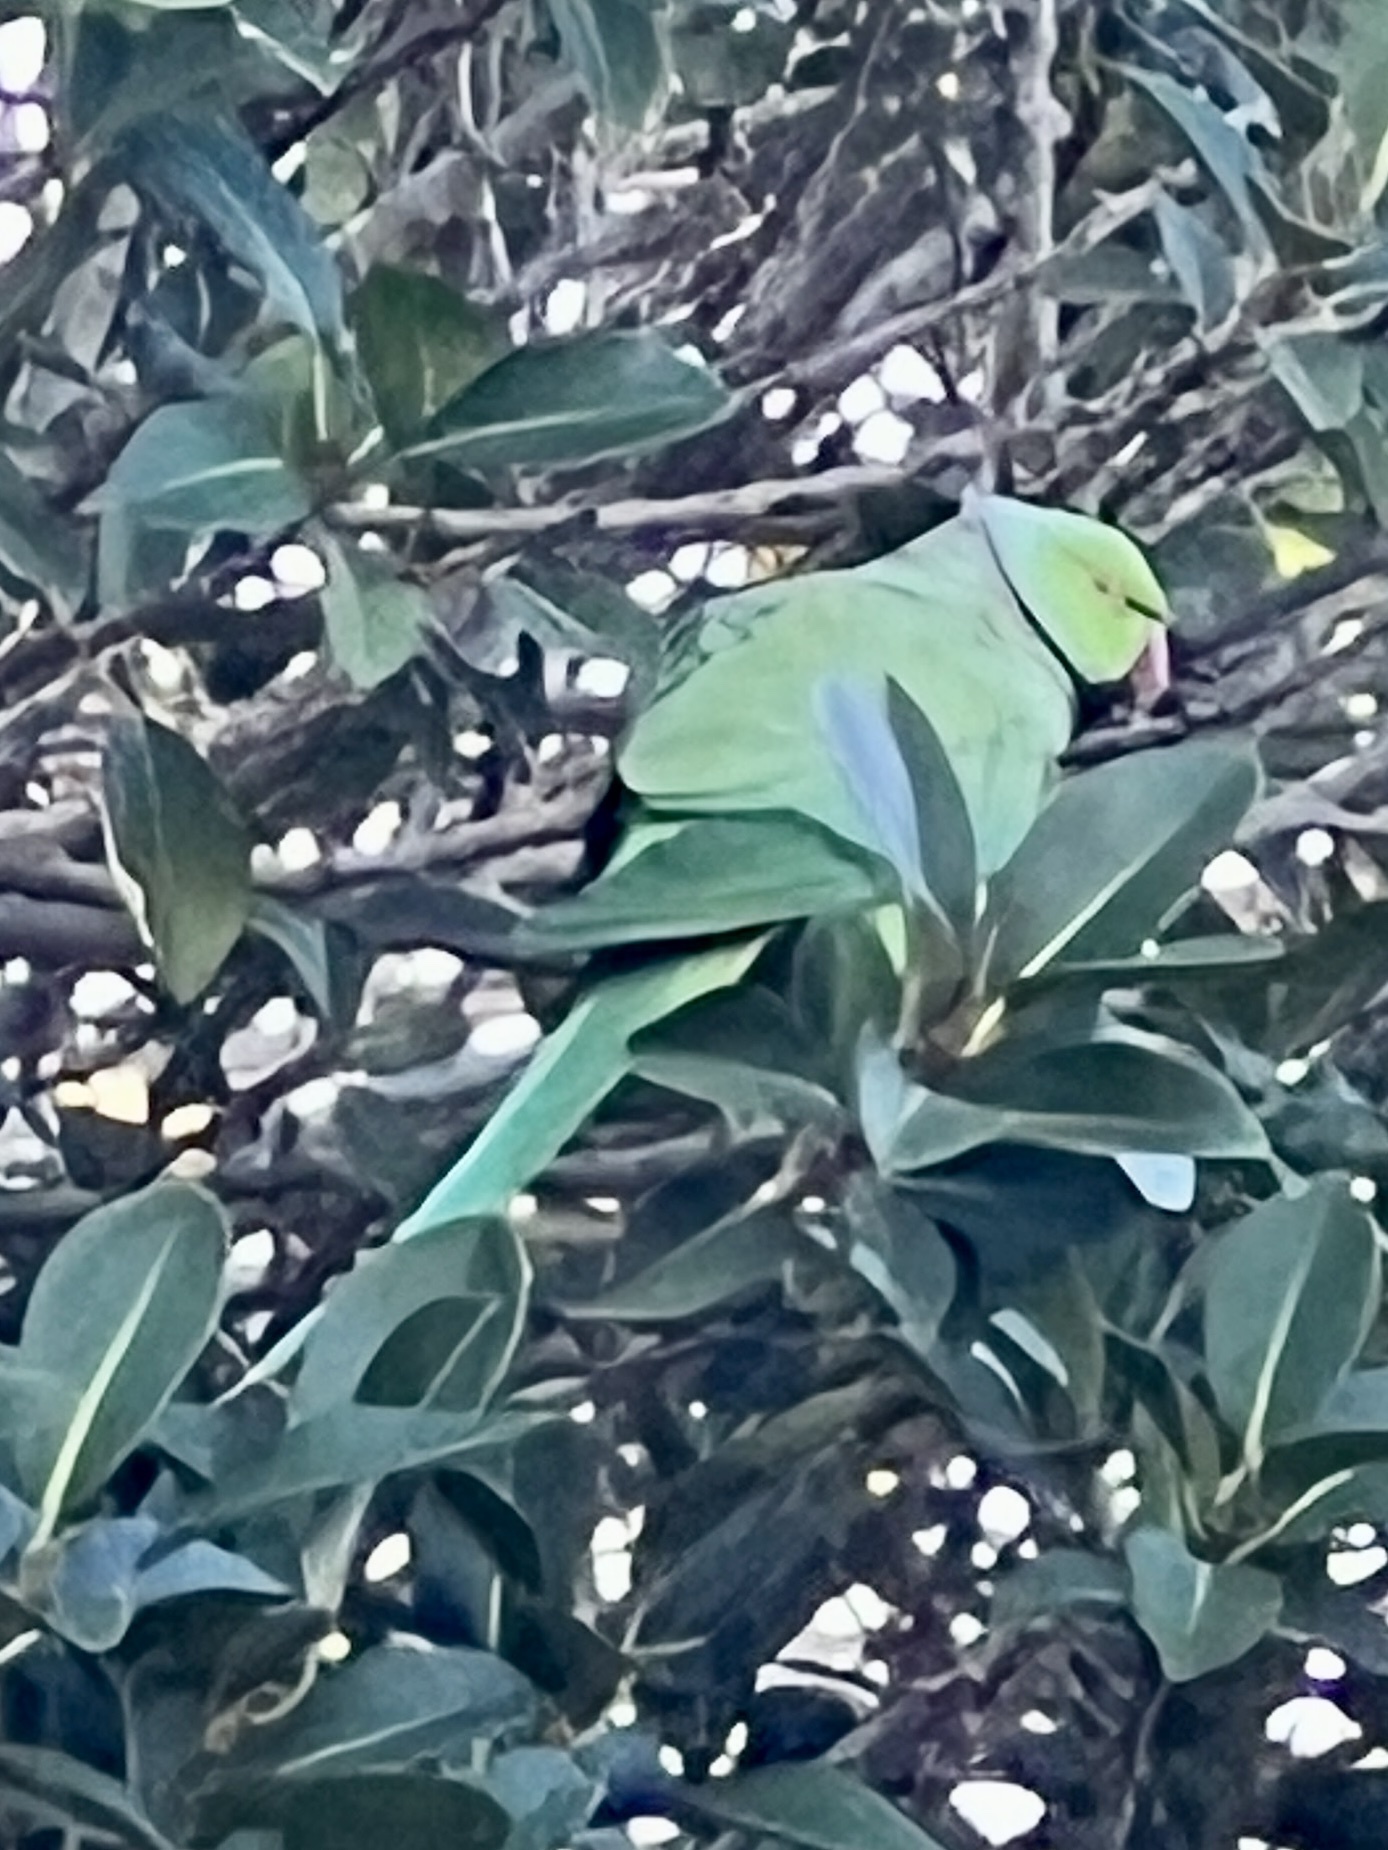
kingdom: Animalia
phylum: Chordata
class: Aves
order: Psittaciformes
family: Psittacidae
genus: Psittacula
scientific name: Psittacula krameri
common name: Rose-ringed parakeet
